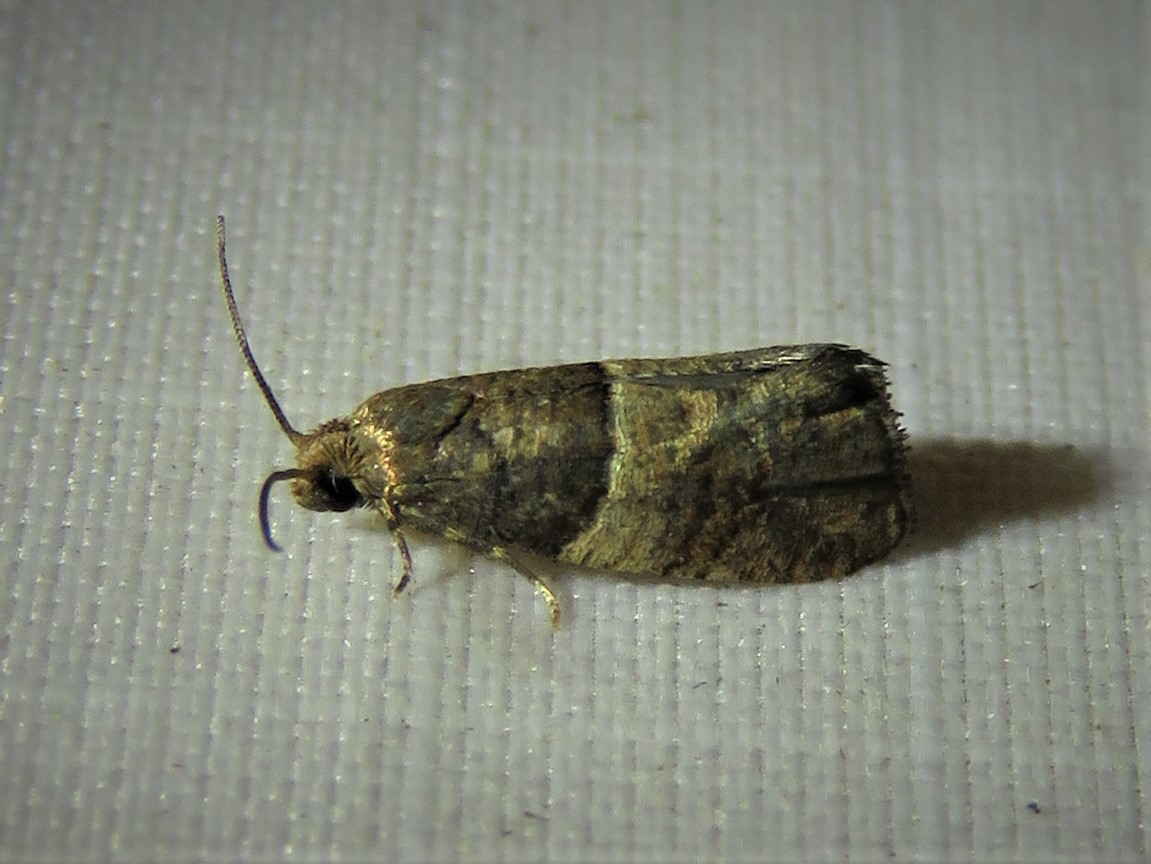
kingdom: Animalia
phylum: Arthropoda
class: Insecta
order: Lepidoptera
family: Tortricidae
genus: Larisa
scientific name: Larisa subsolana
